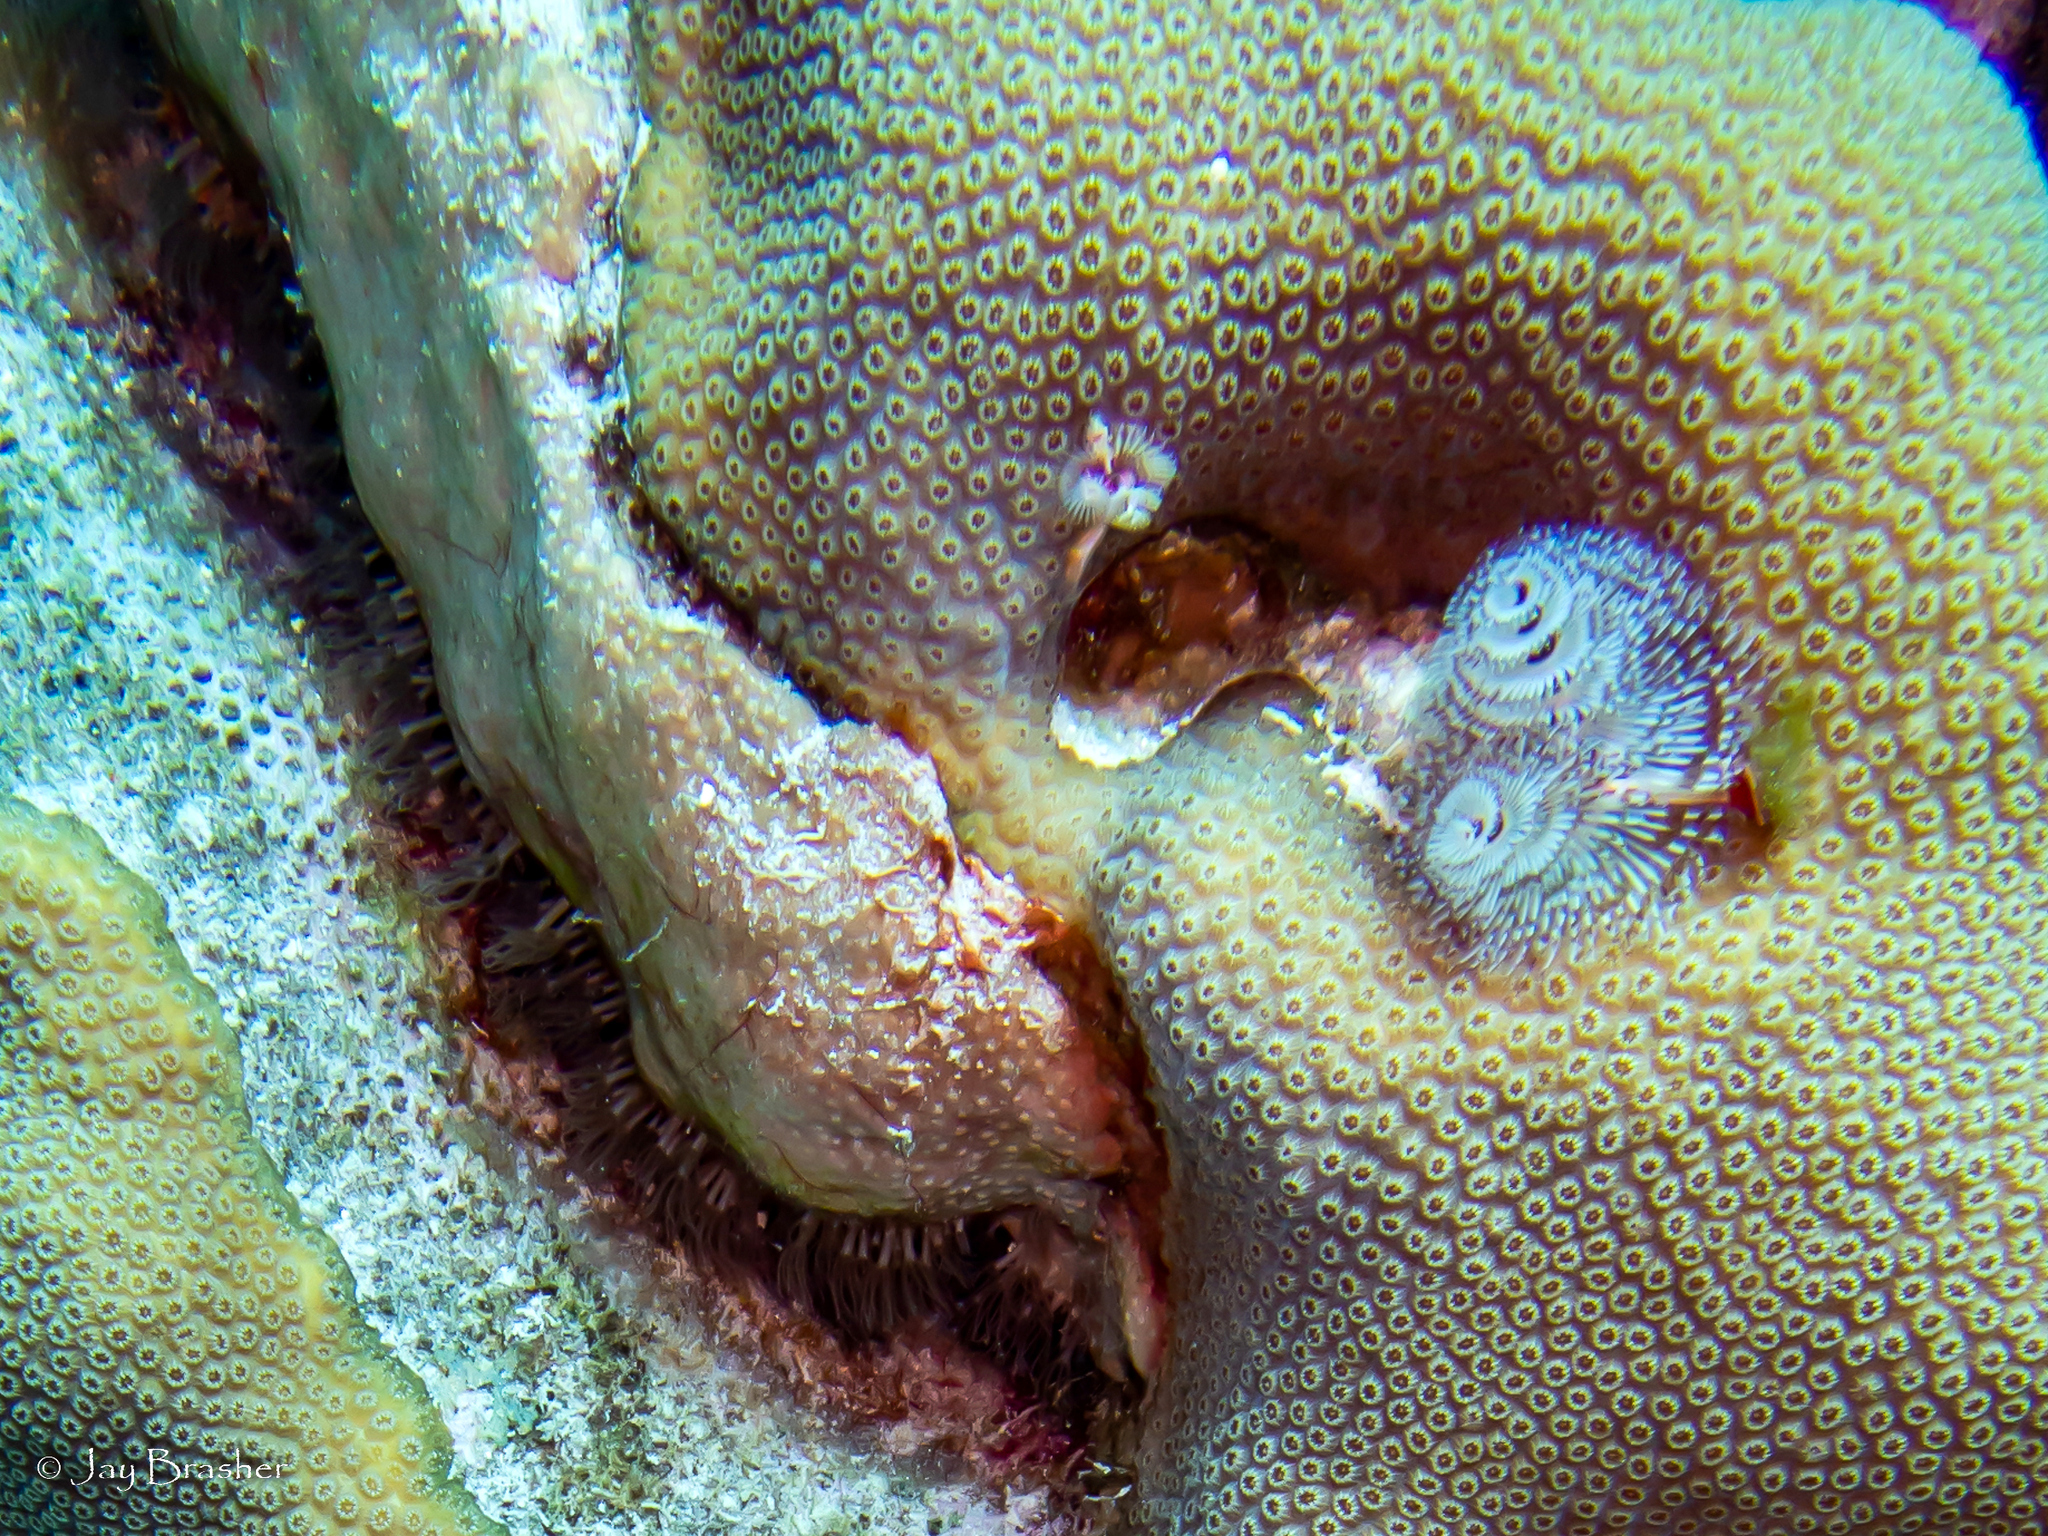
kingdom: Animalia
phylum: Cnidaria
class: Anthozoa
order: Scleralcyonacea
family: Erythropodiidae
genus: Erythropodium
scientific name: Erythropodium caribaeorum
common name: Encrusting gorgonian
